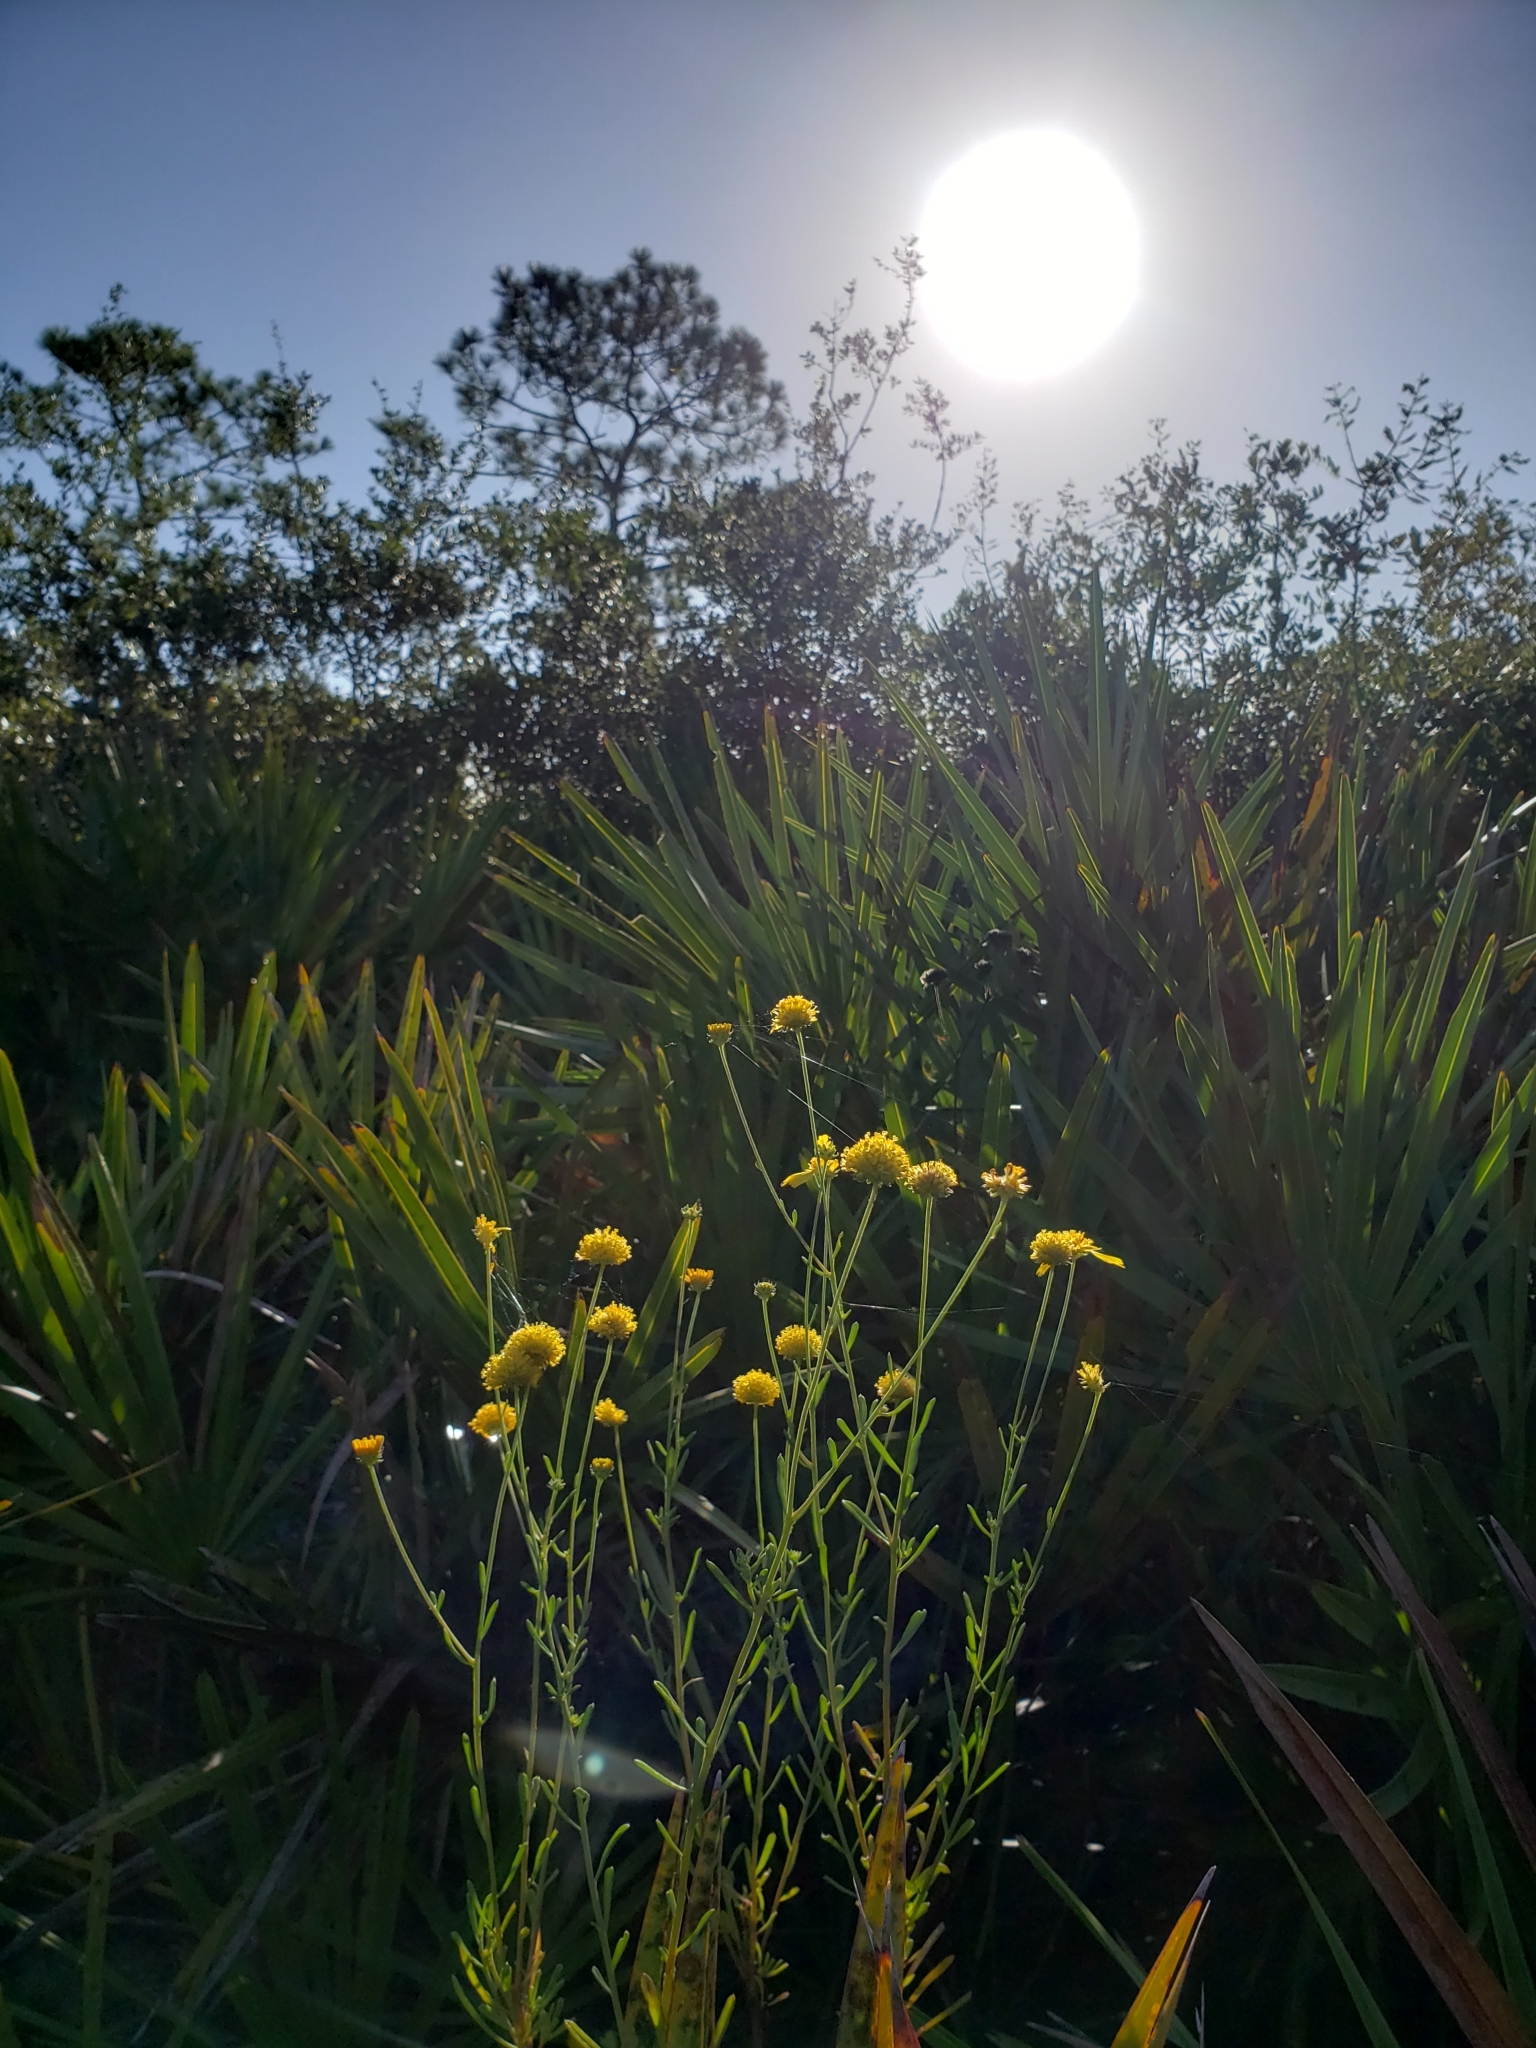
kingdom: Plantae
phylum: Tracheophyta
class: Magnoliopsida
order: Asterales
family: Asteraceae
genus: Balduina
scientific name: Balduina angustifolia
